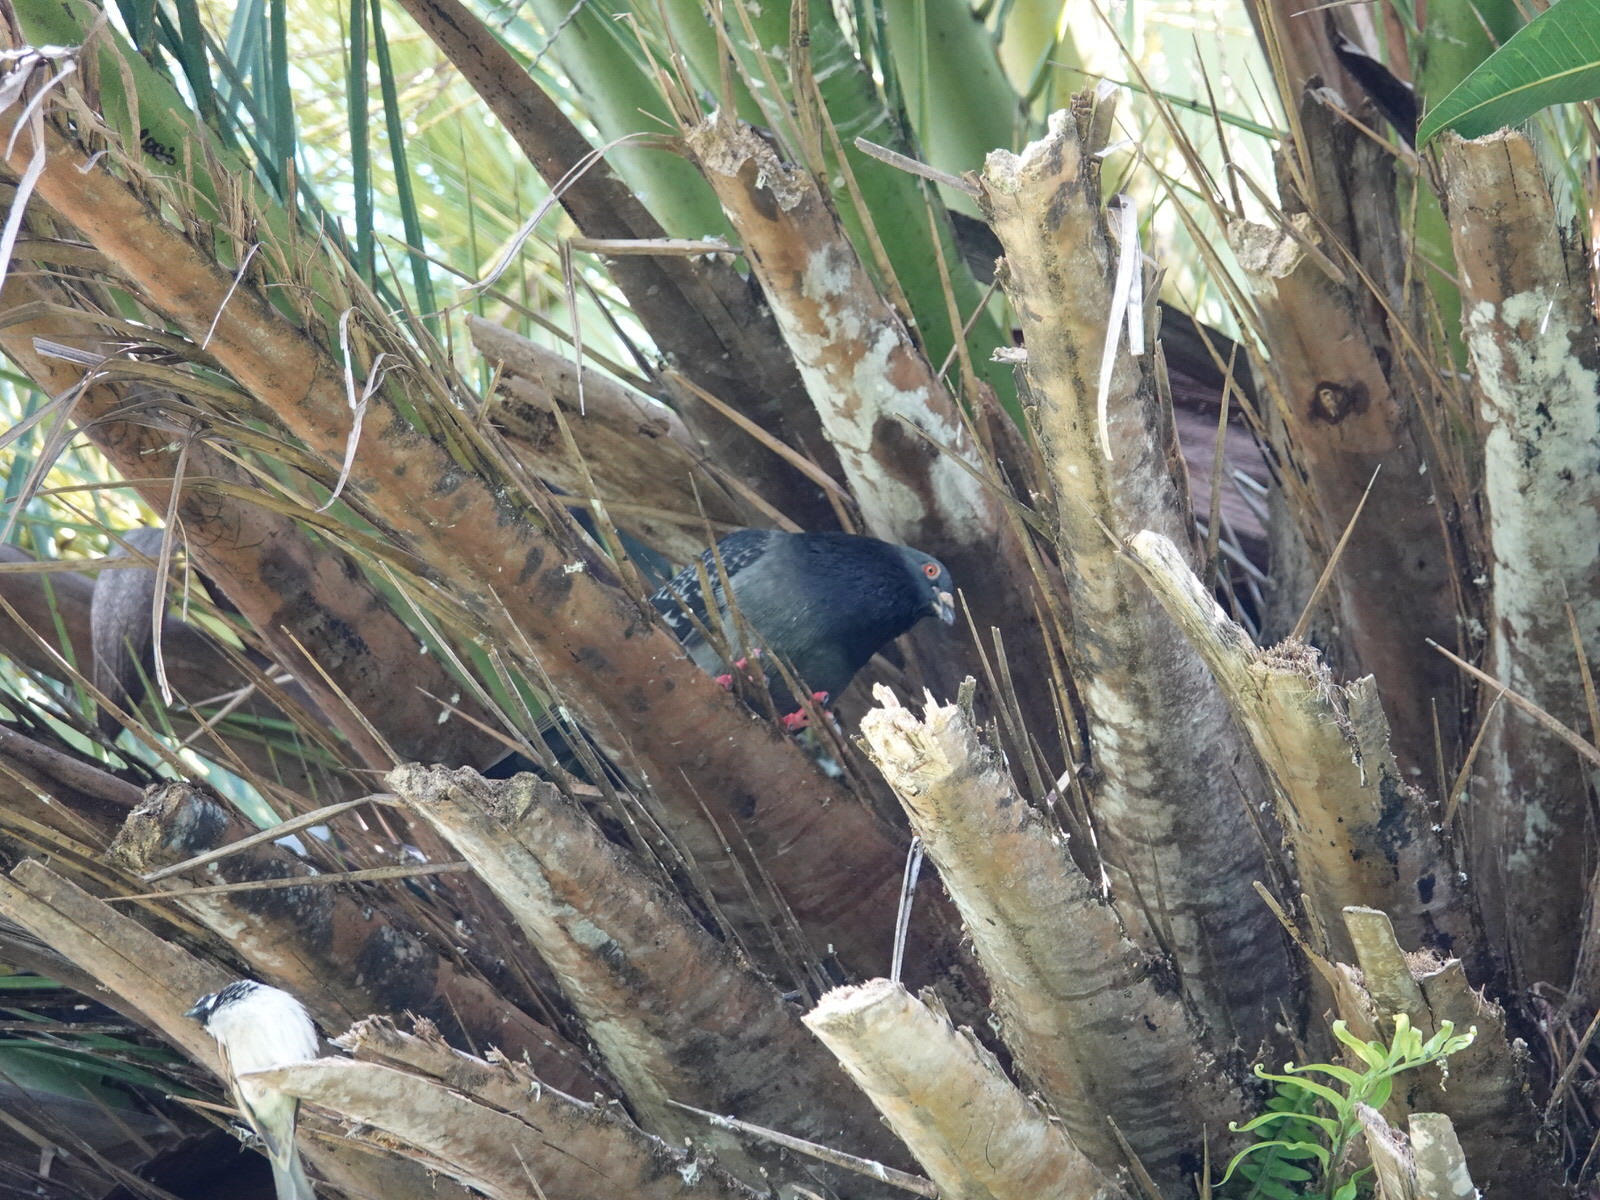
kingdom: Animalia
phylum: Chordata
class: Aves
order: Columbiformes
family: Columbidae
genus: Columba
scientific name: Columba livia
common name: Rock pigeon
